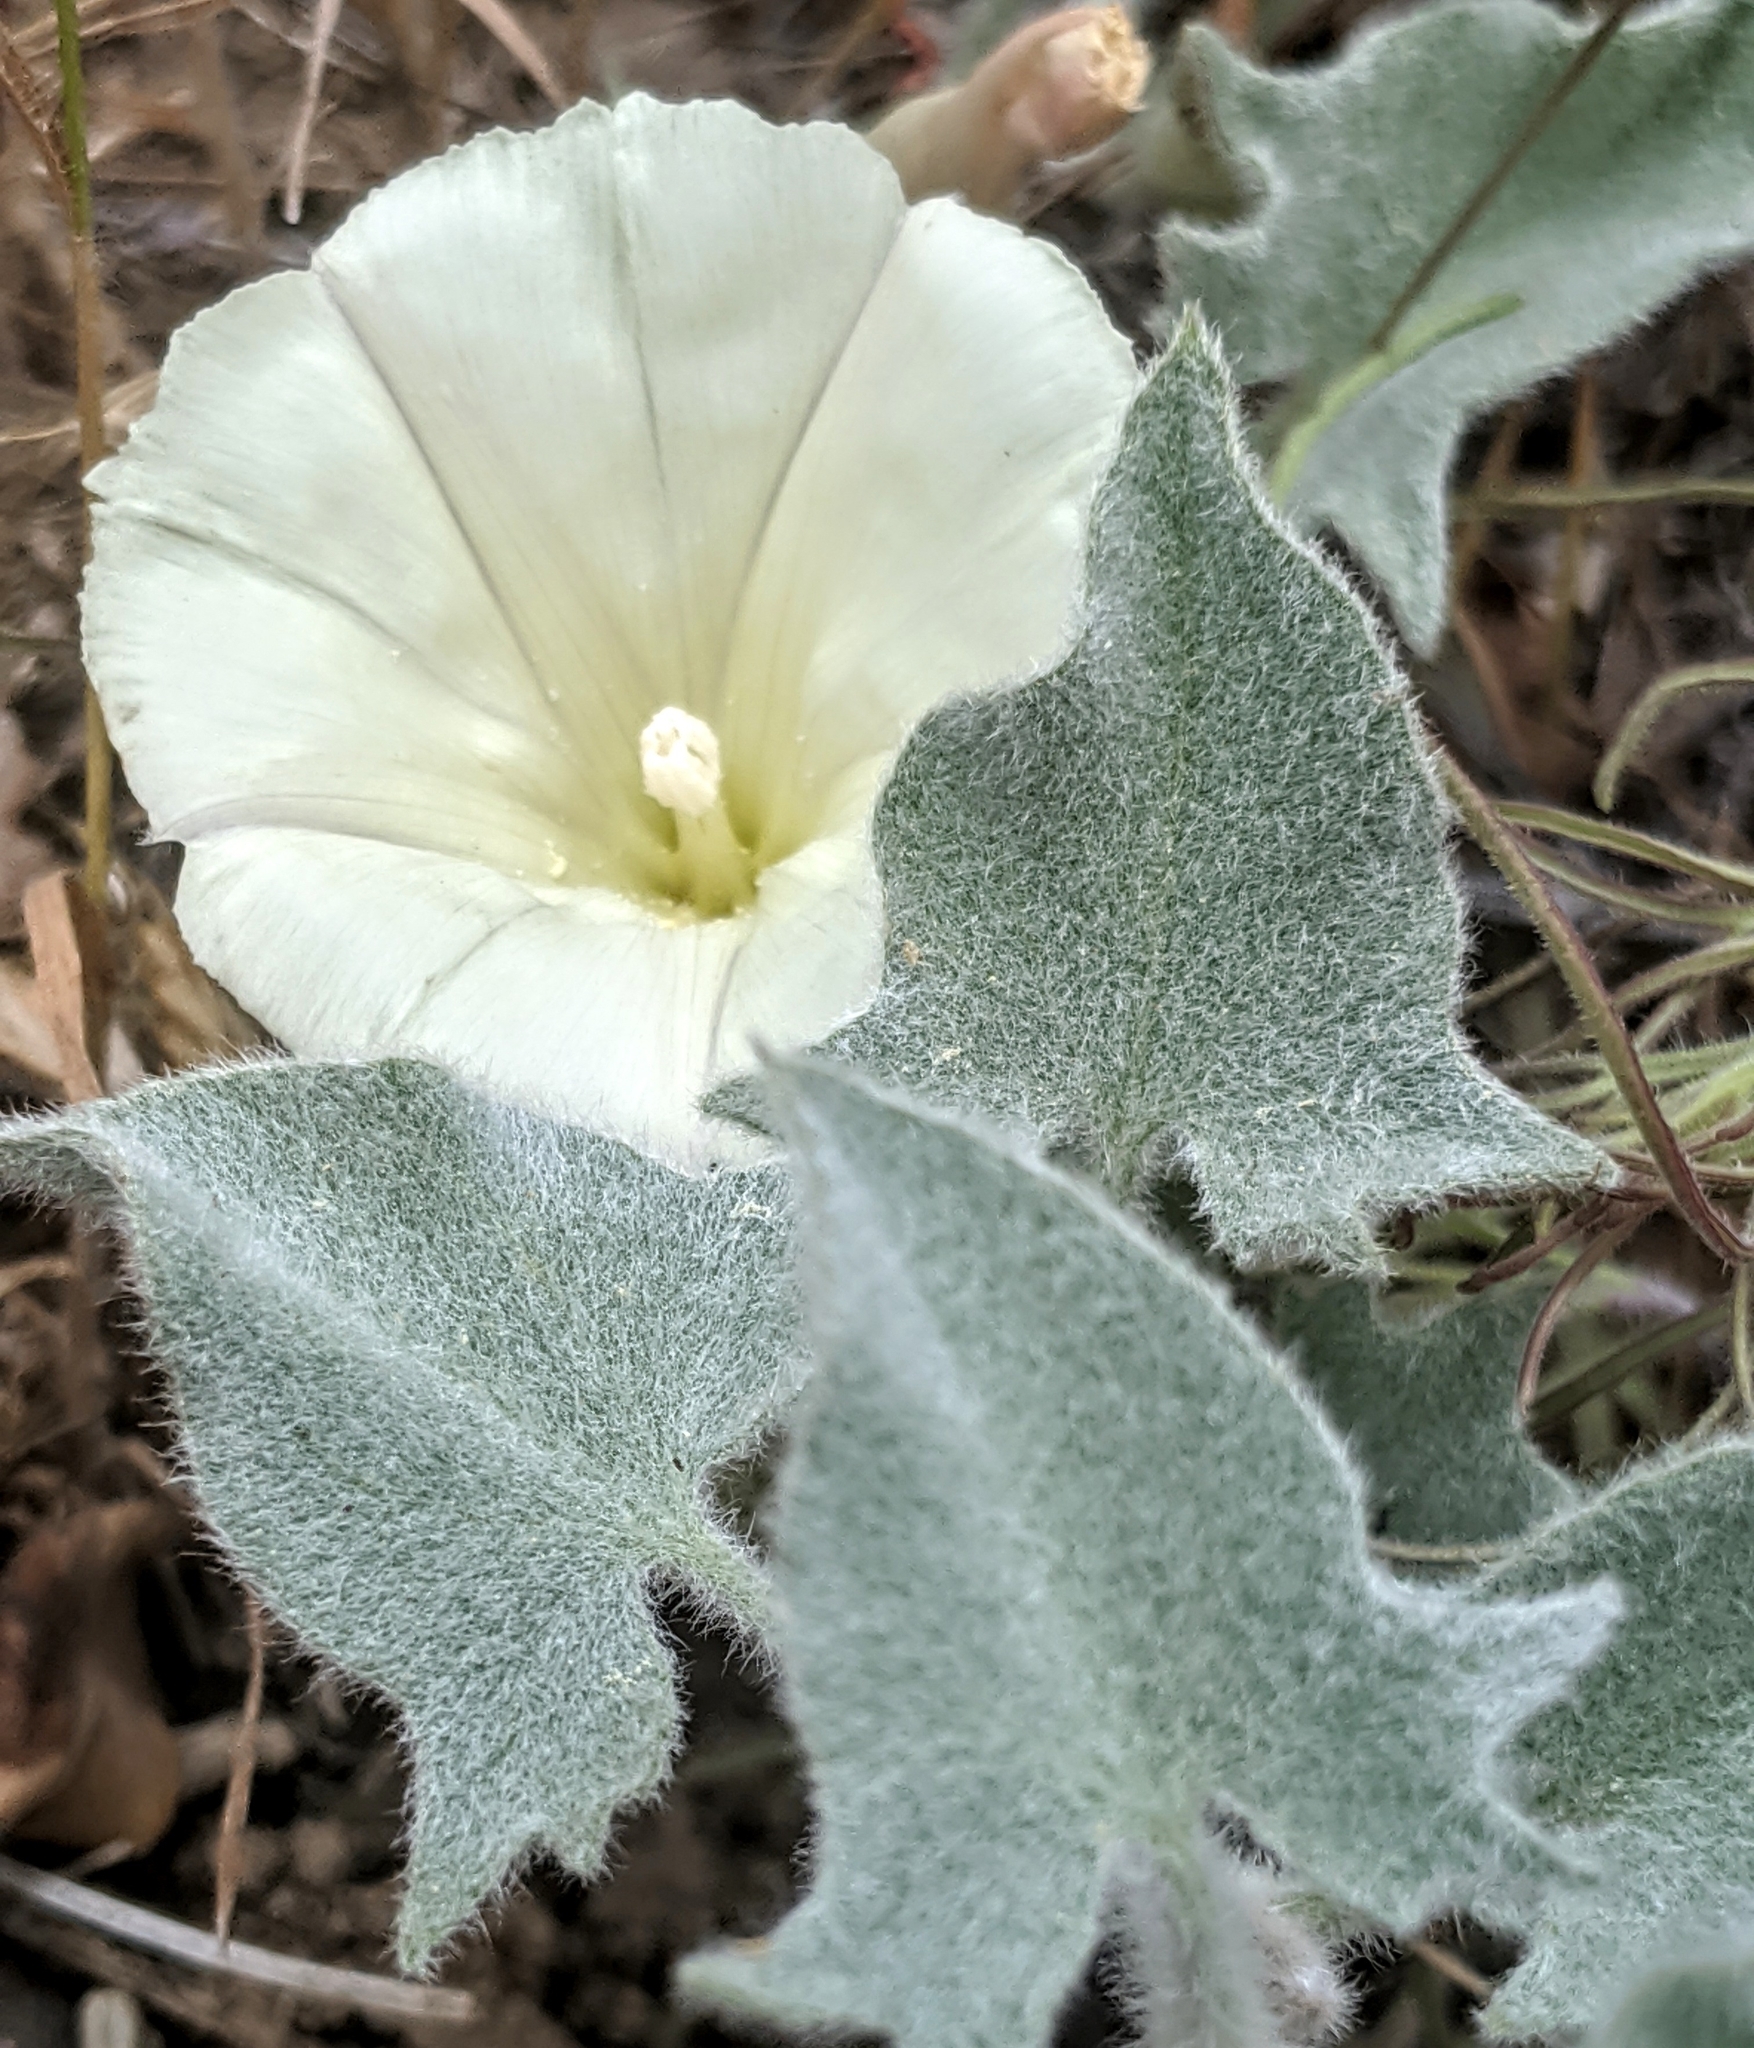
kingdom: Plantae
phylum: Tracheophyta
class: Magnoliopsida
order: Solanales
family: Convolvulaceae
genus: Calystegia
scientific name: Calystegia malacophylla
